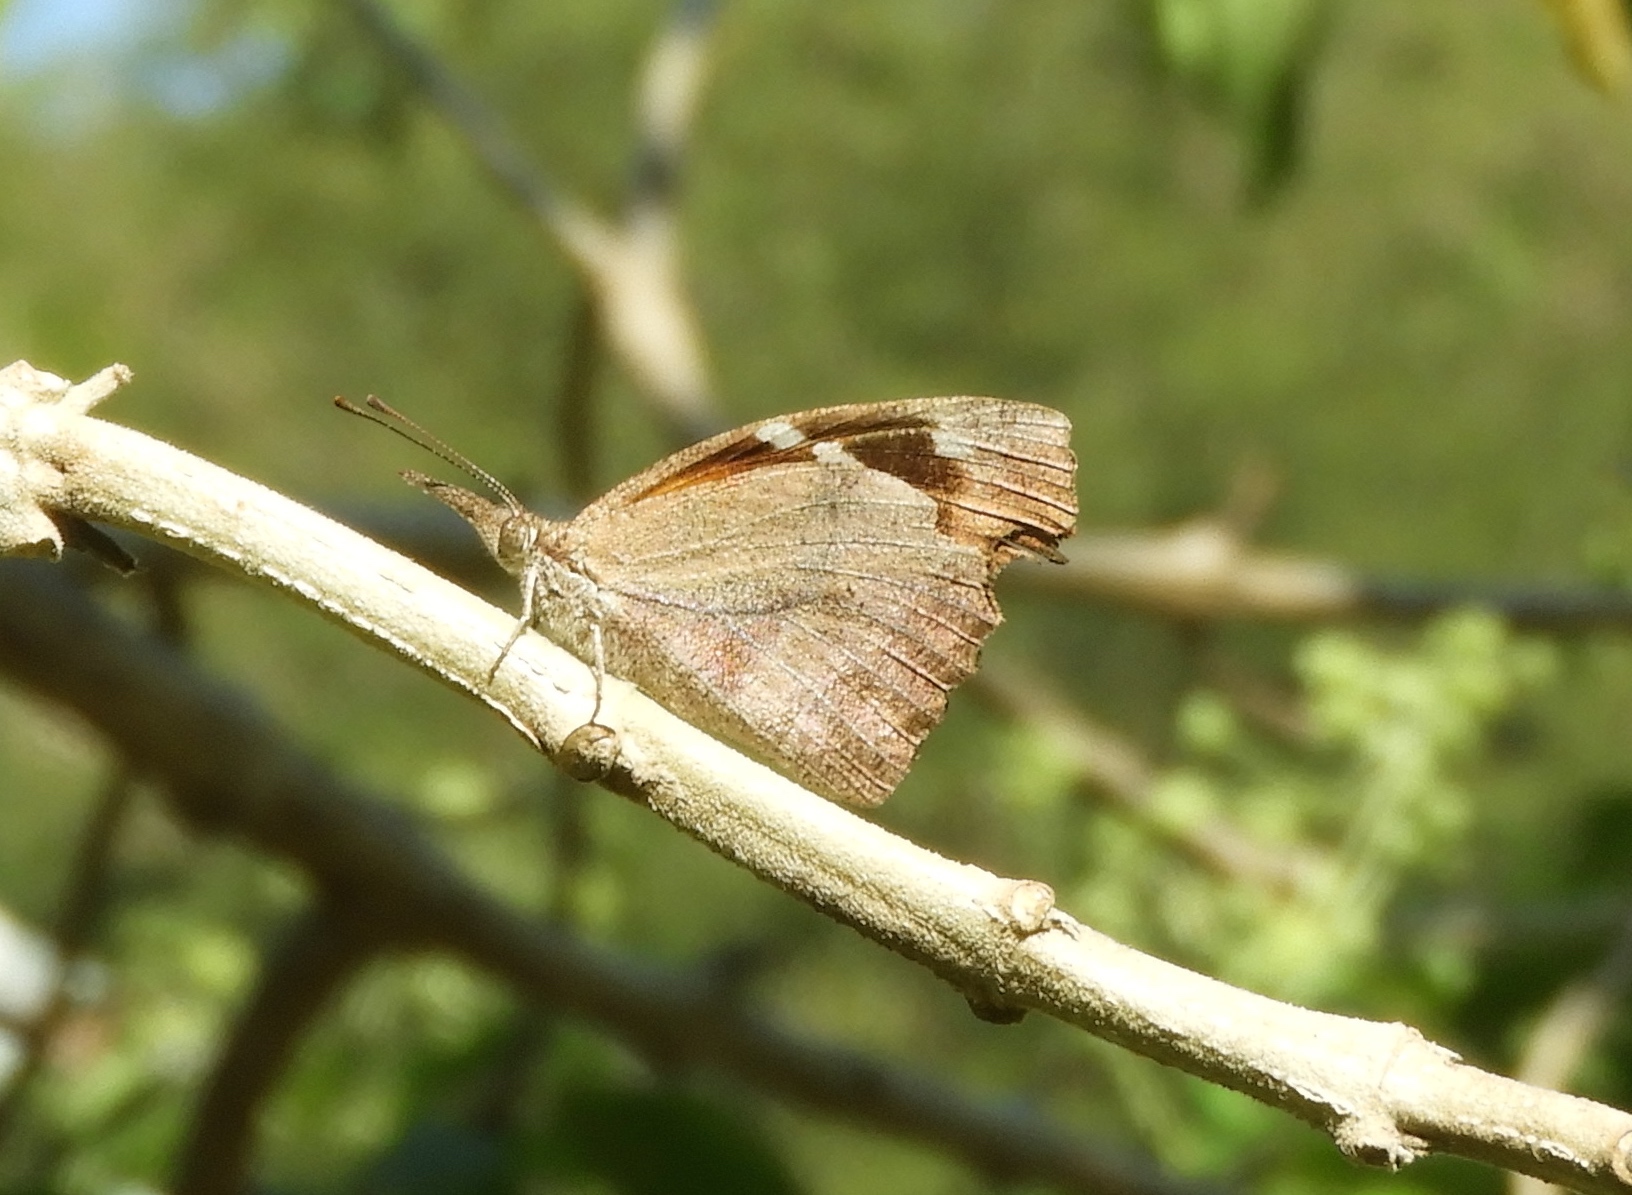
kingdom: Animalia
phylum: Arthropoda
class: Insecta
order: Lepidoptera
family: Nymphalidae
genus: Libytheana
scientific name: Libytheana carinenta
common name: American snout
